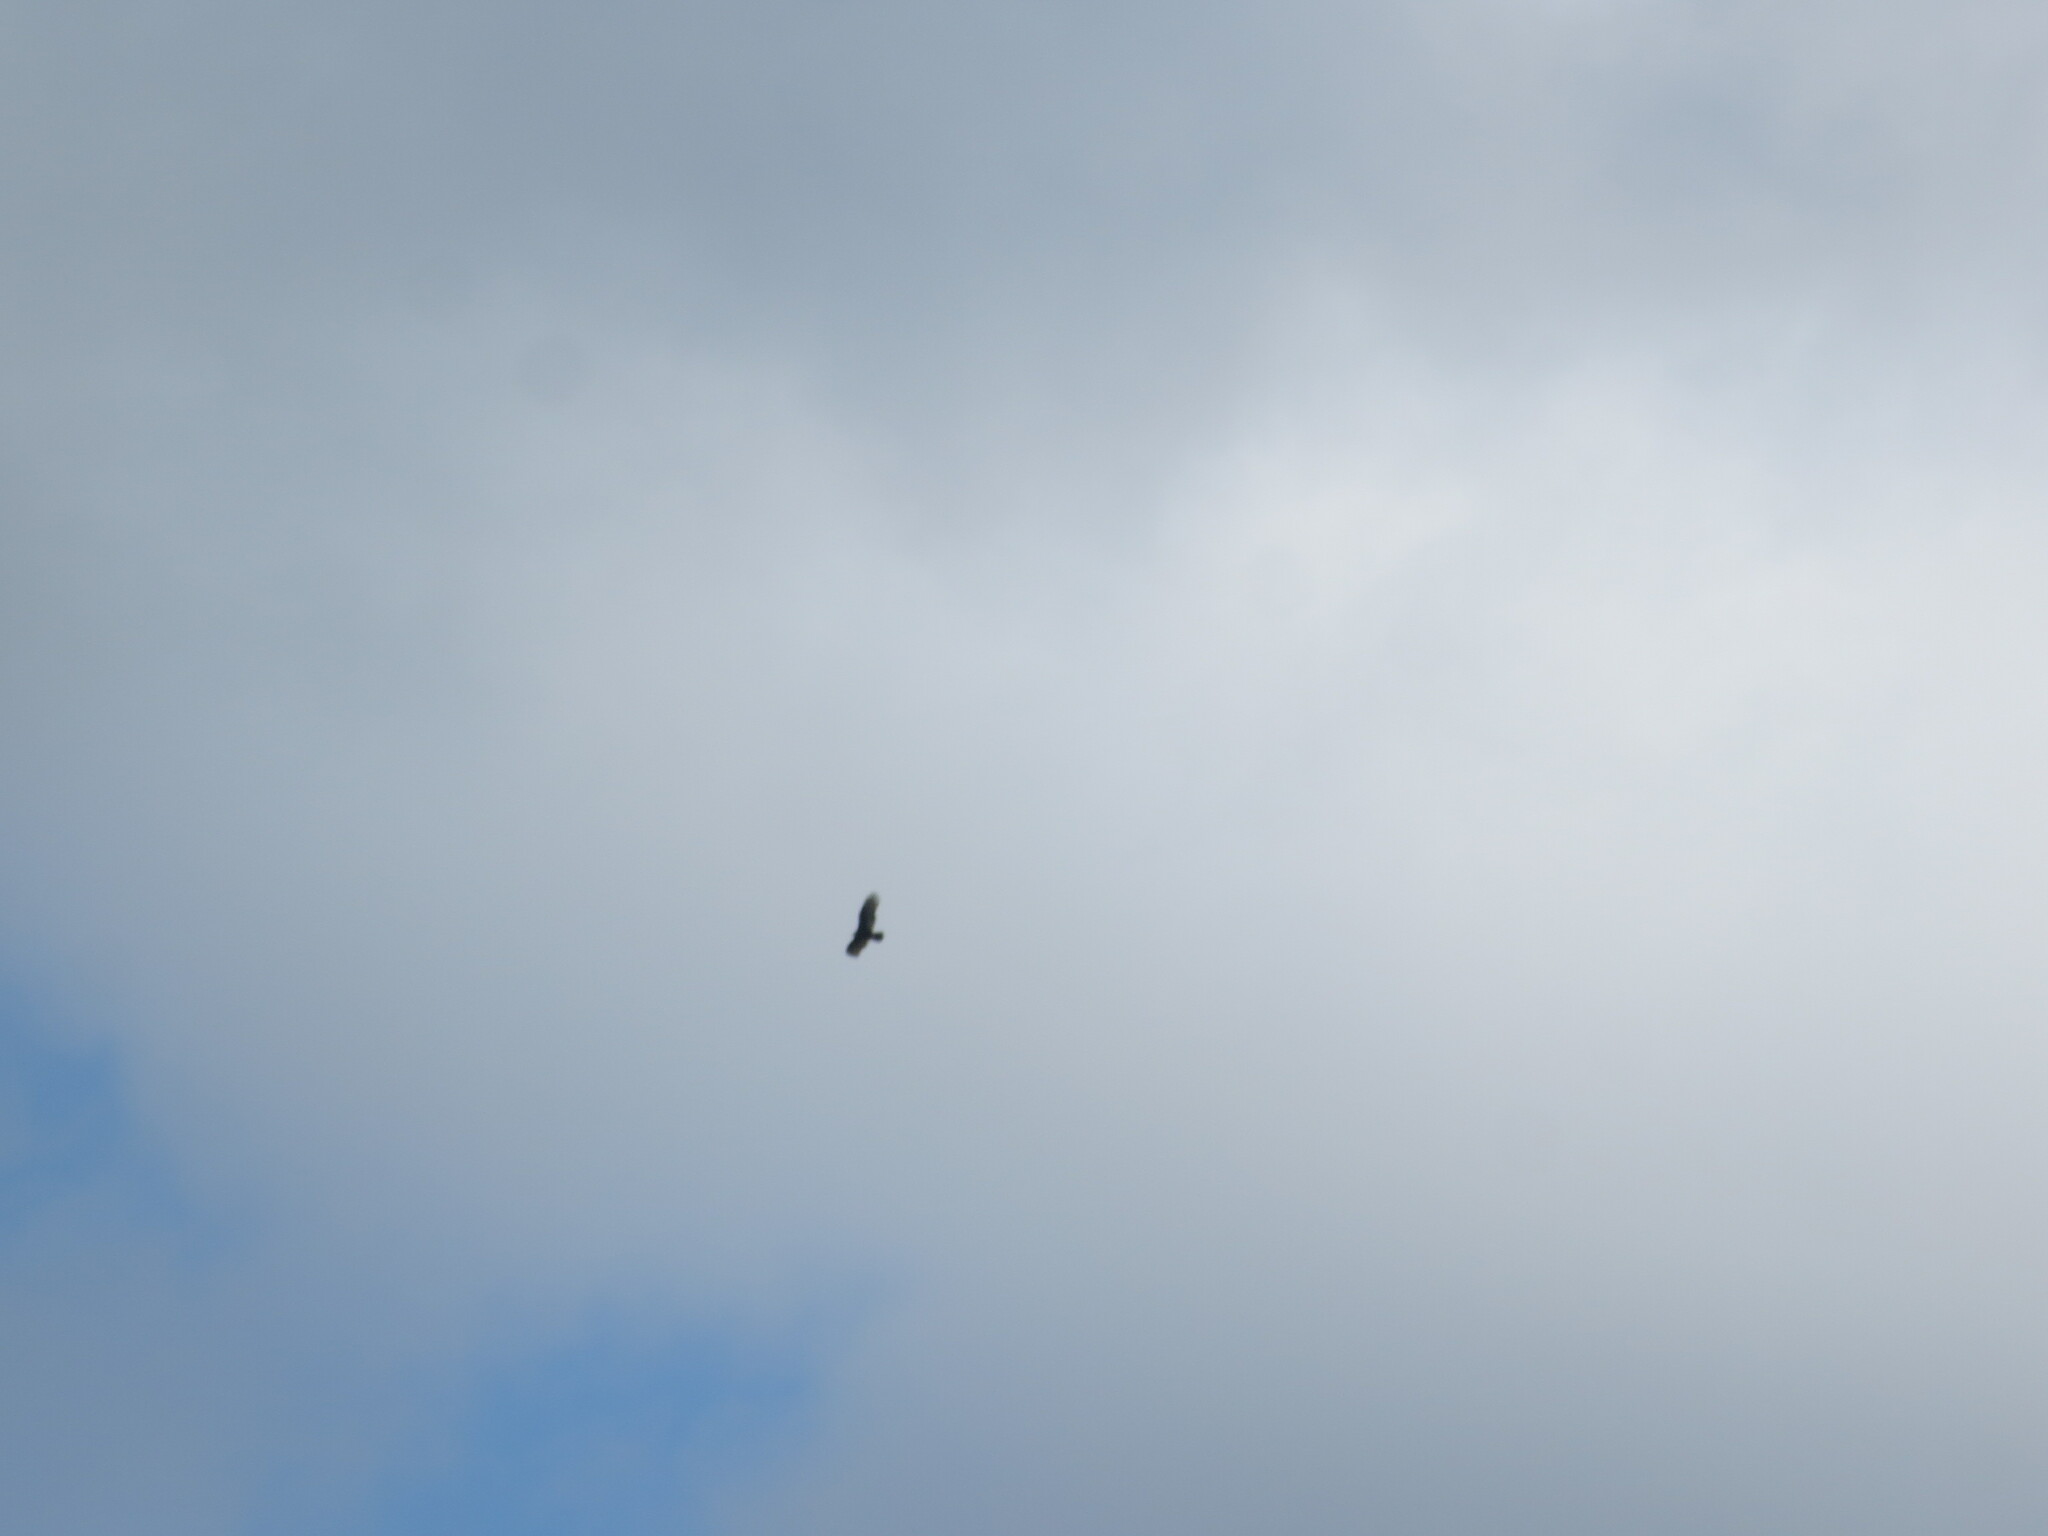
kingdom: Animalia
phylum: Chordata
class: Aves
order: Accipitriformes
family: Cathartidae
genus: Cathartes
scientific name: Cathartes aura
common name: Turkey vulture
